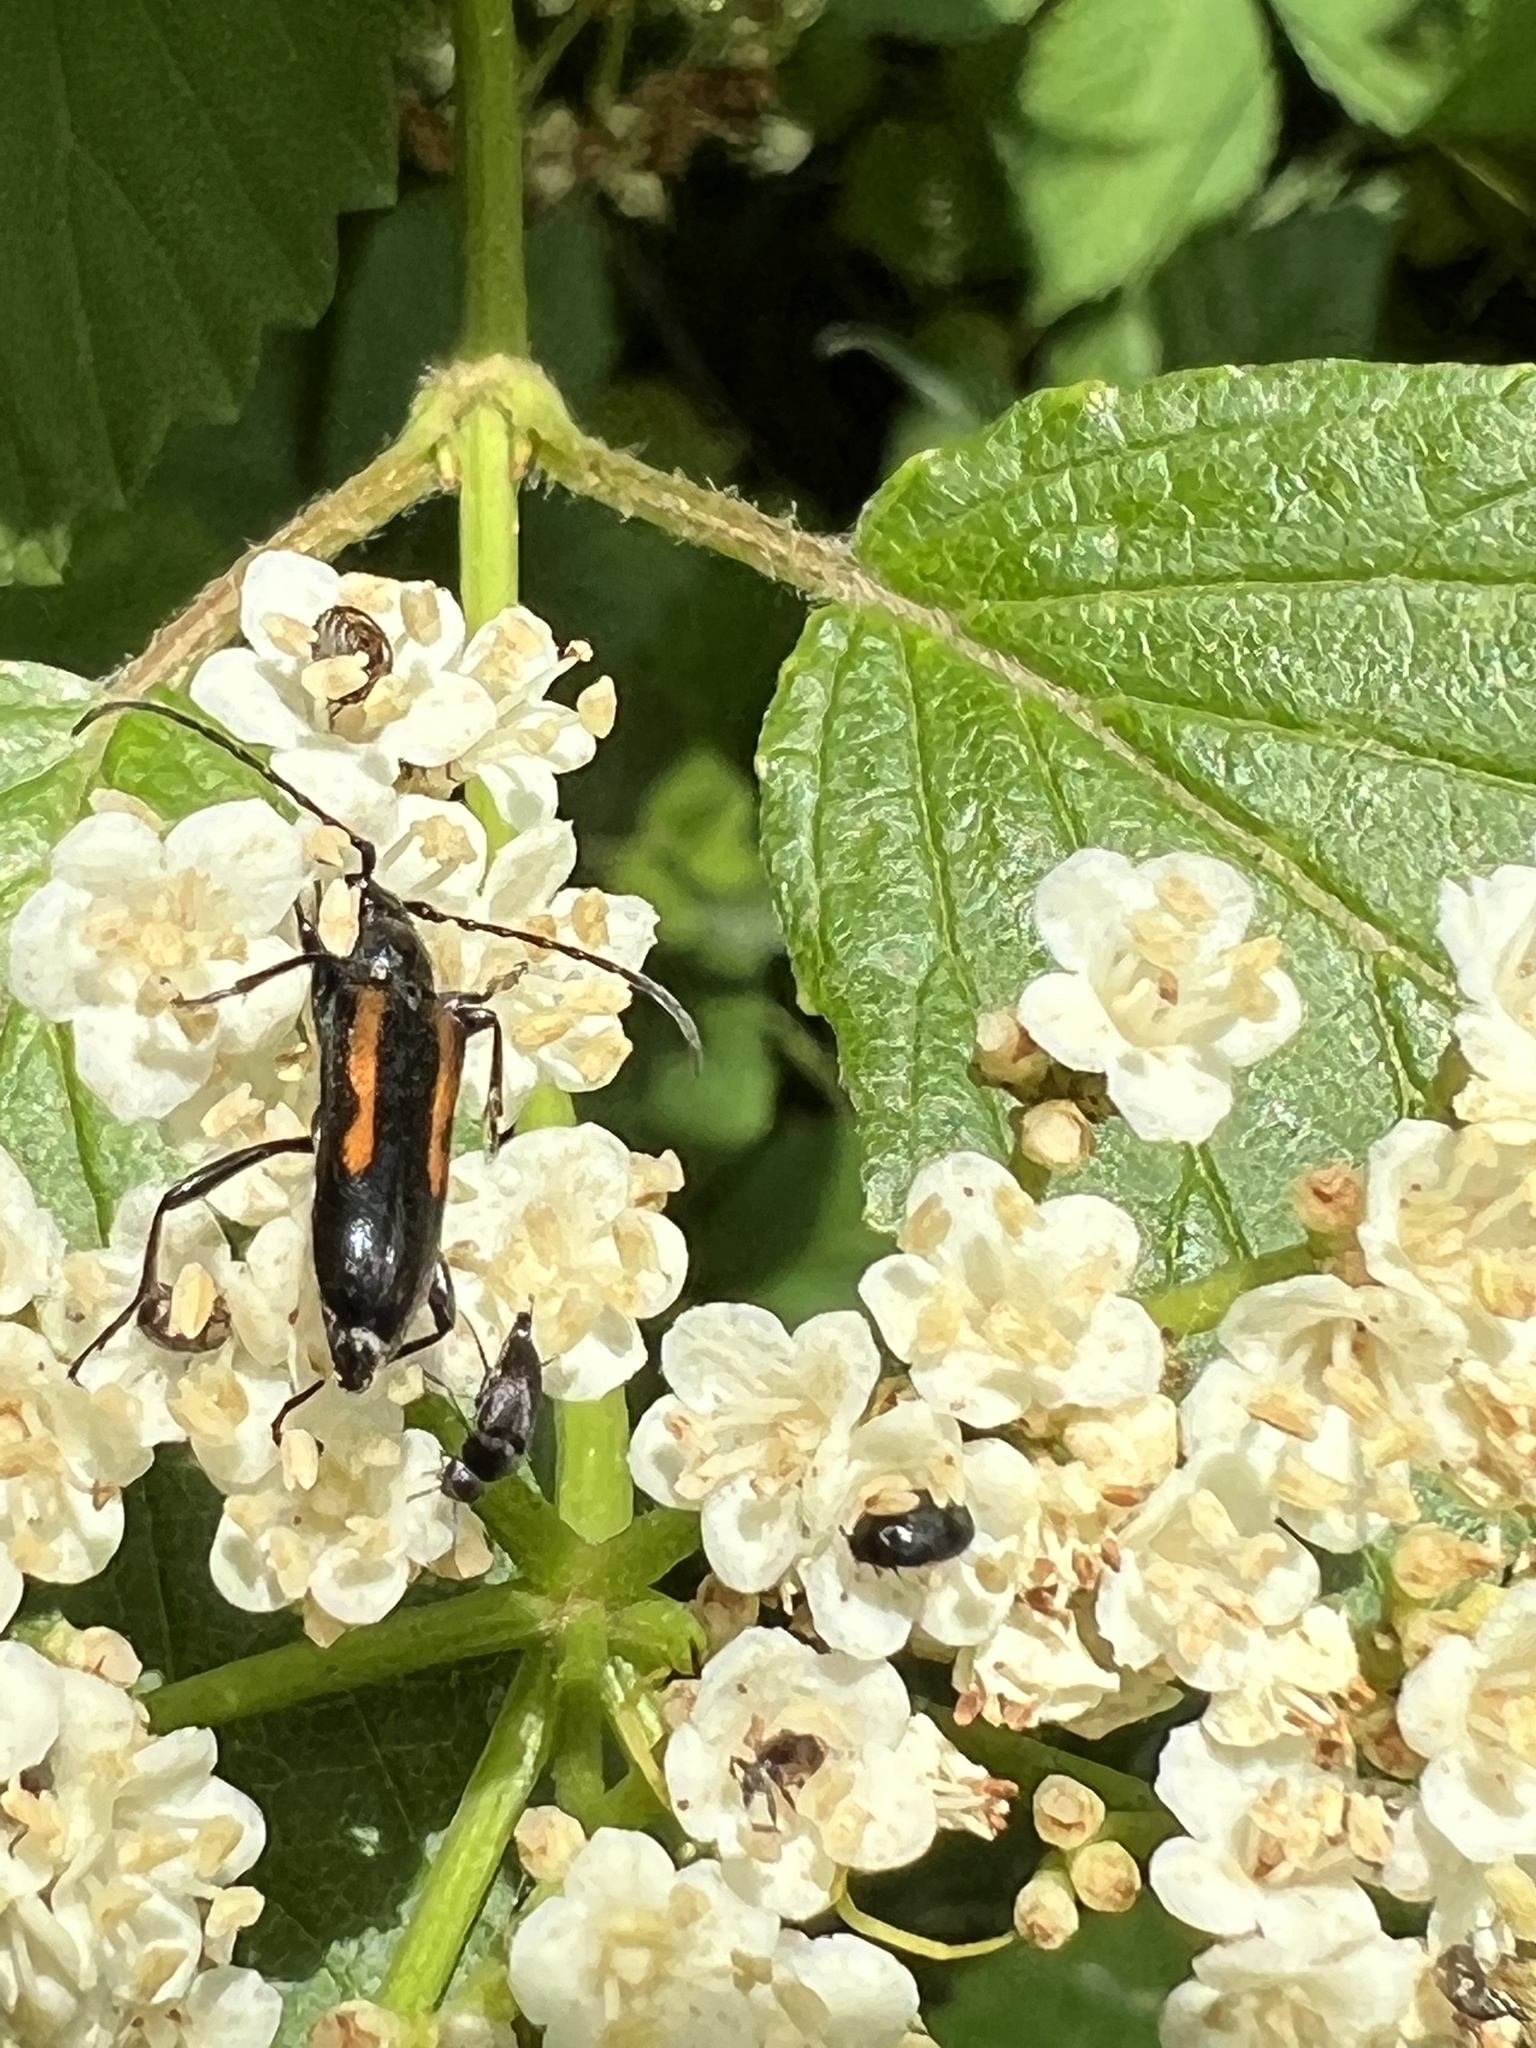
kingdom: Animalia
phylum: Arthropoda
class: Insecta
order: Coleoptera
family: Cerambycidae
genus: Strangalepta
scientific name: Strangalepta abbreviata
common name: Strangalepta flower longhorn beetle
